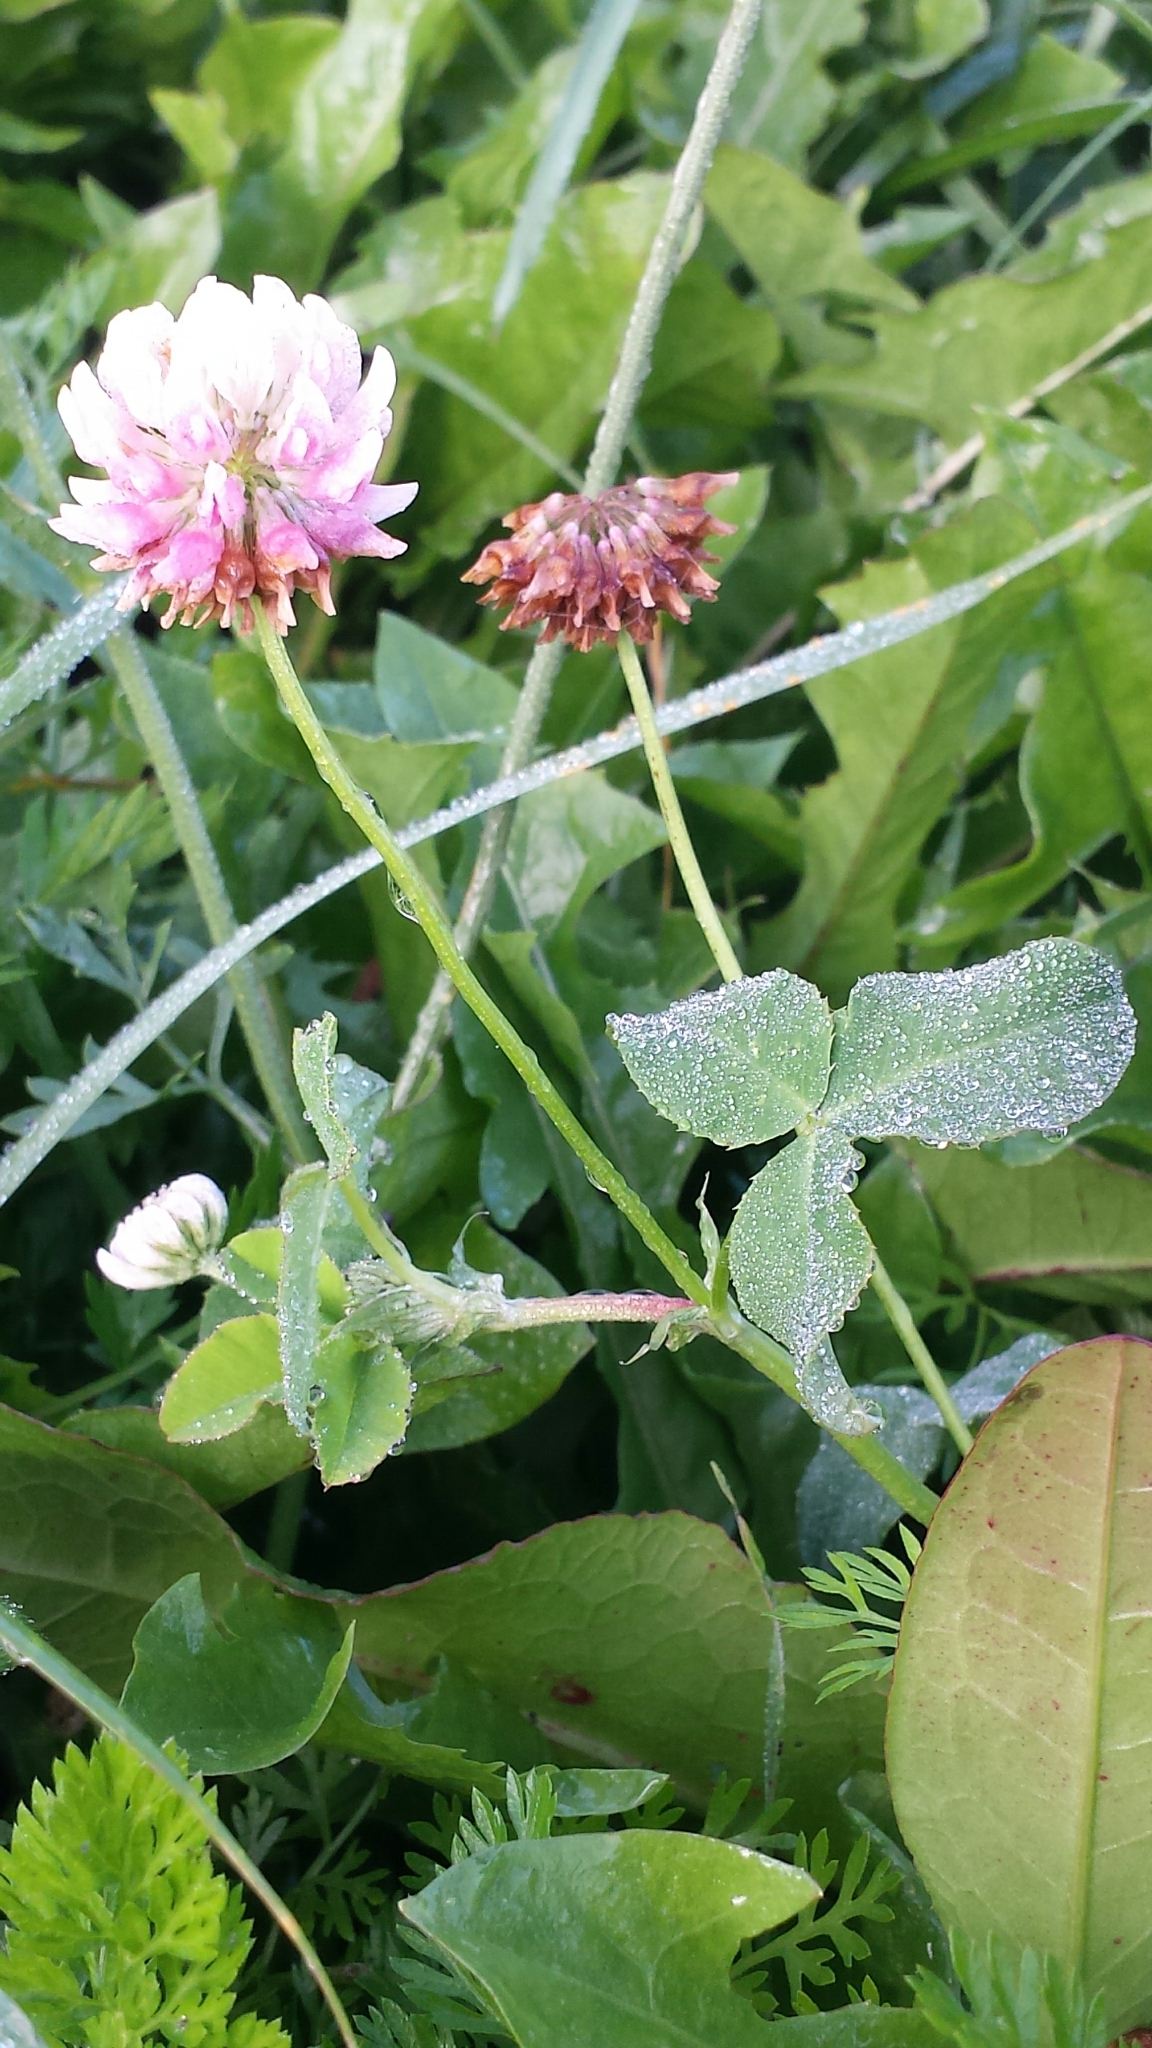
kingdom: Plantae
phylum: Tracheophyta
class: Magnoliopsida
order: Fabales
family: Fabaceae
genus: Trifolium
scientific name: Trifolium hybridum
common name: Alsike clover
